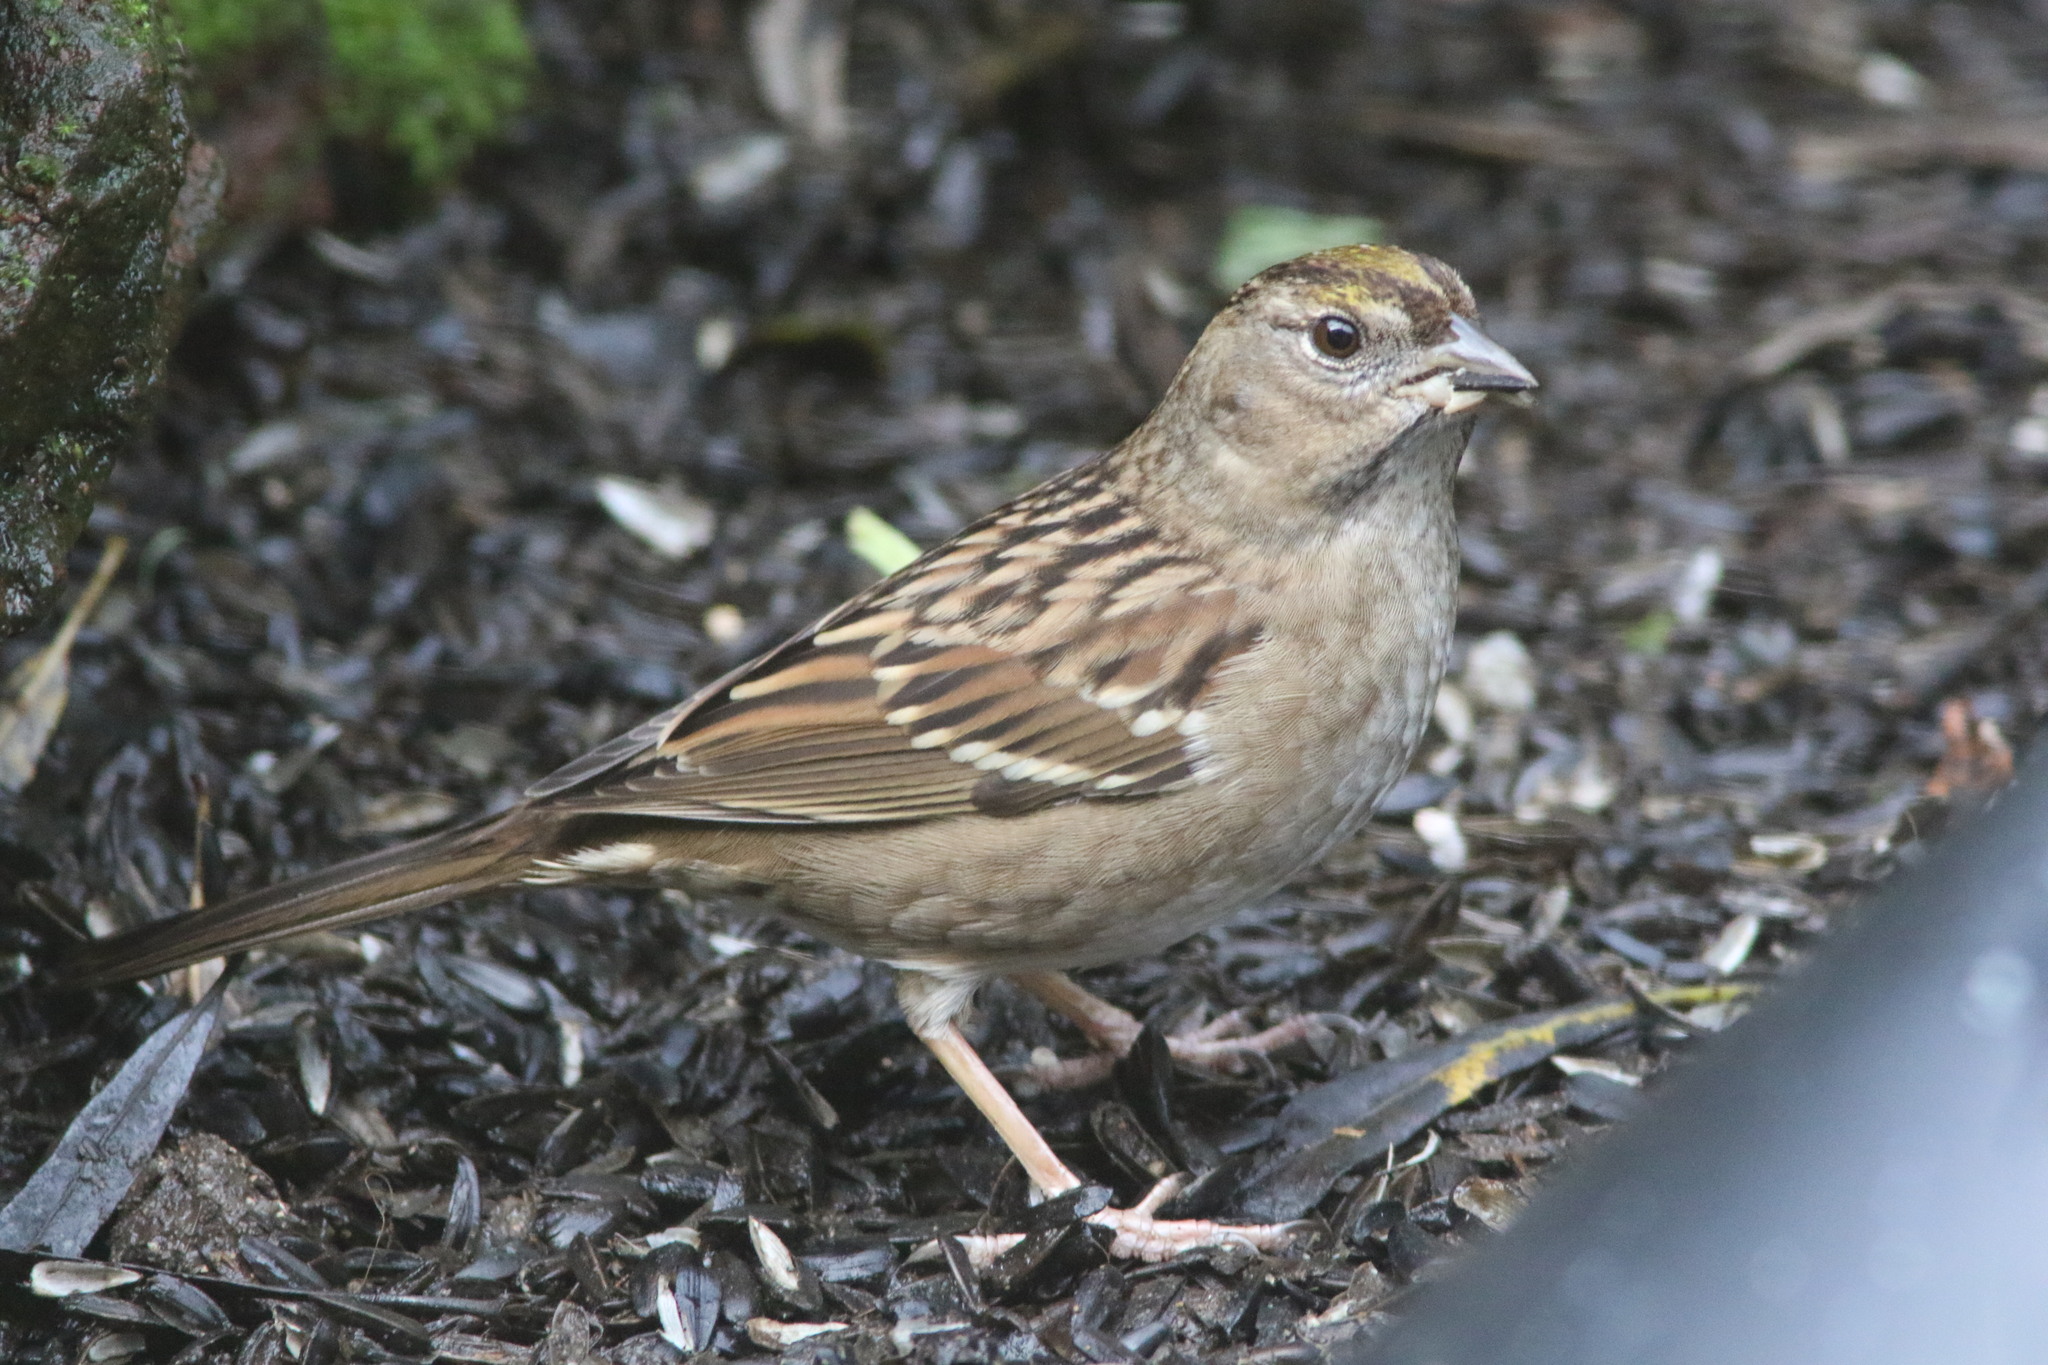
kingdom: Animalia
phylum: Chordata
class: Aves
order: Passeriformes
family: Passerellidae
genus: Zonotrichia
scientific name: Zonotrichia atricapilla
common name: Golden-crowned sparrow
